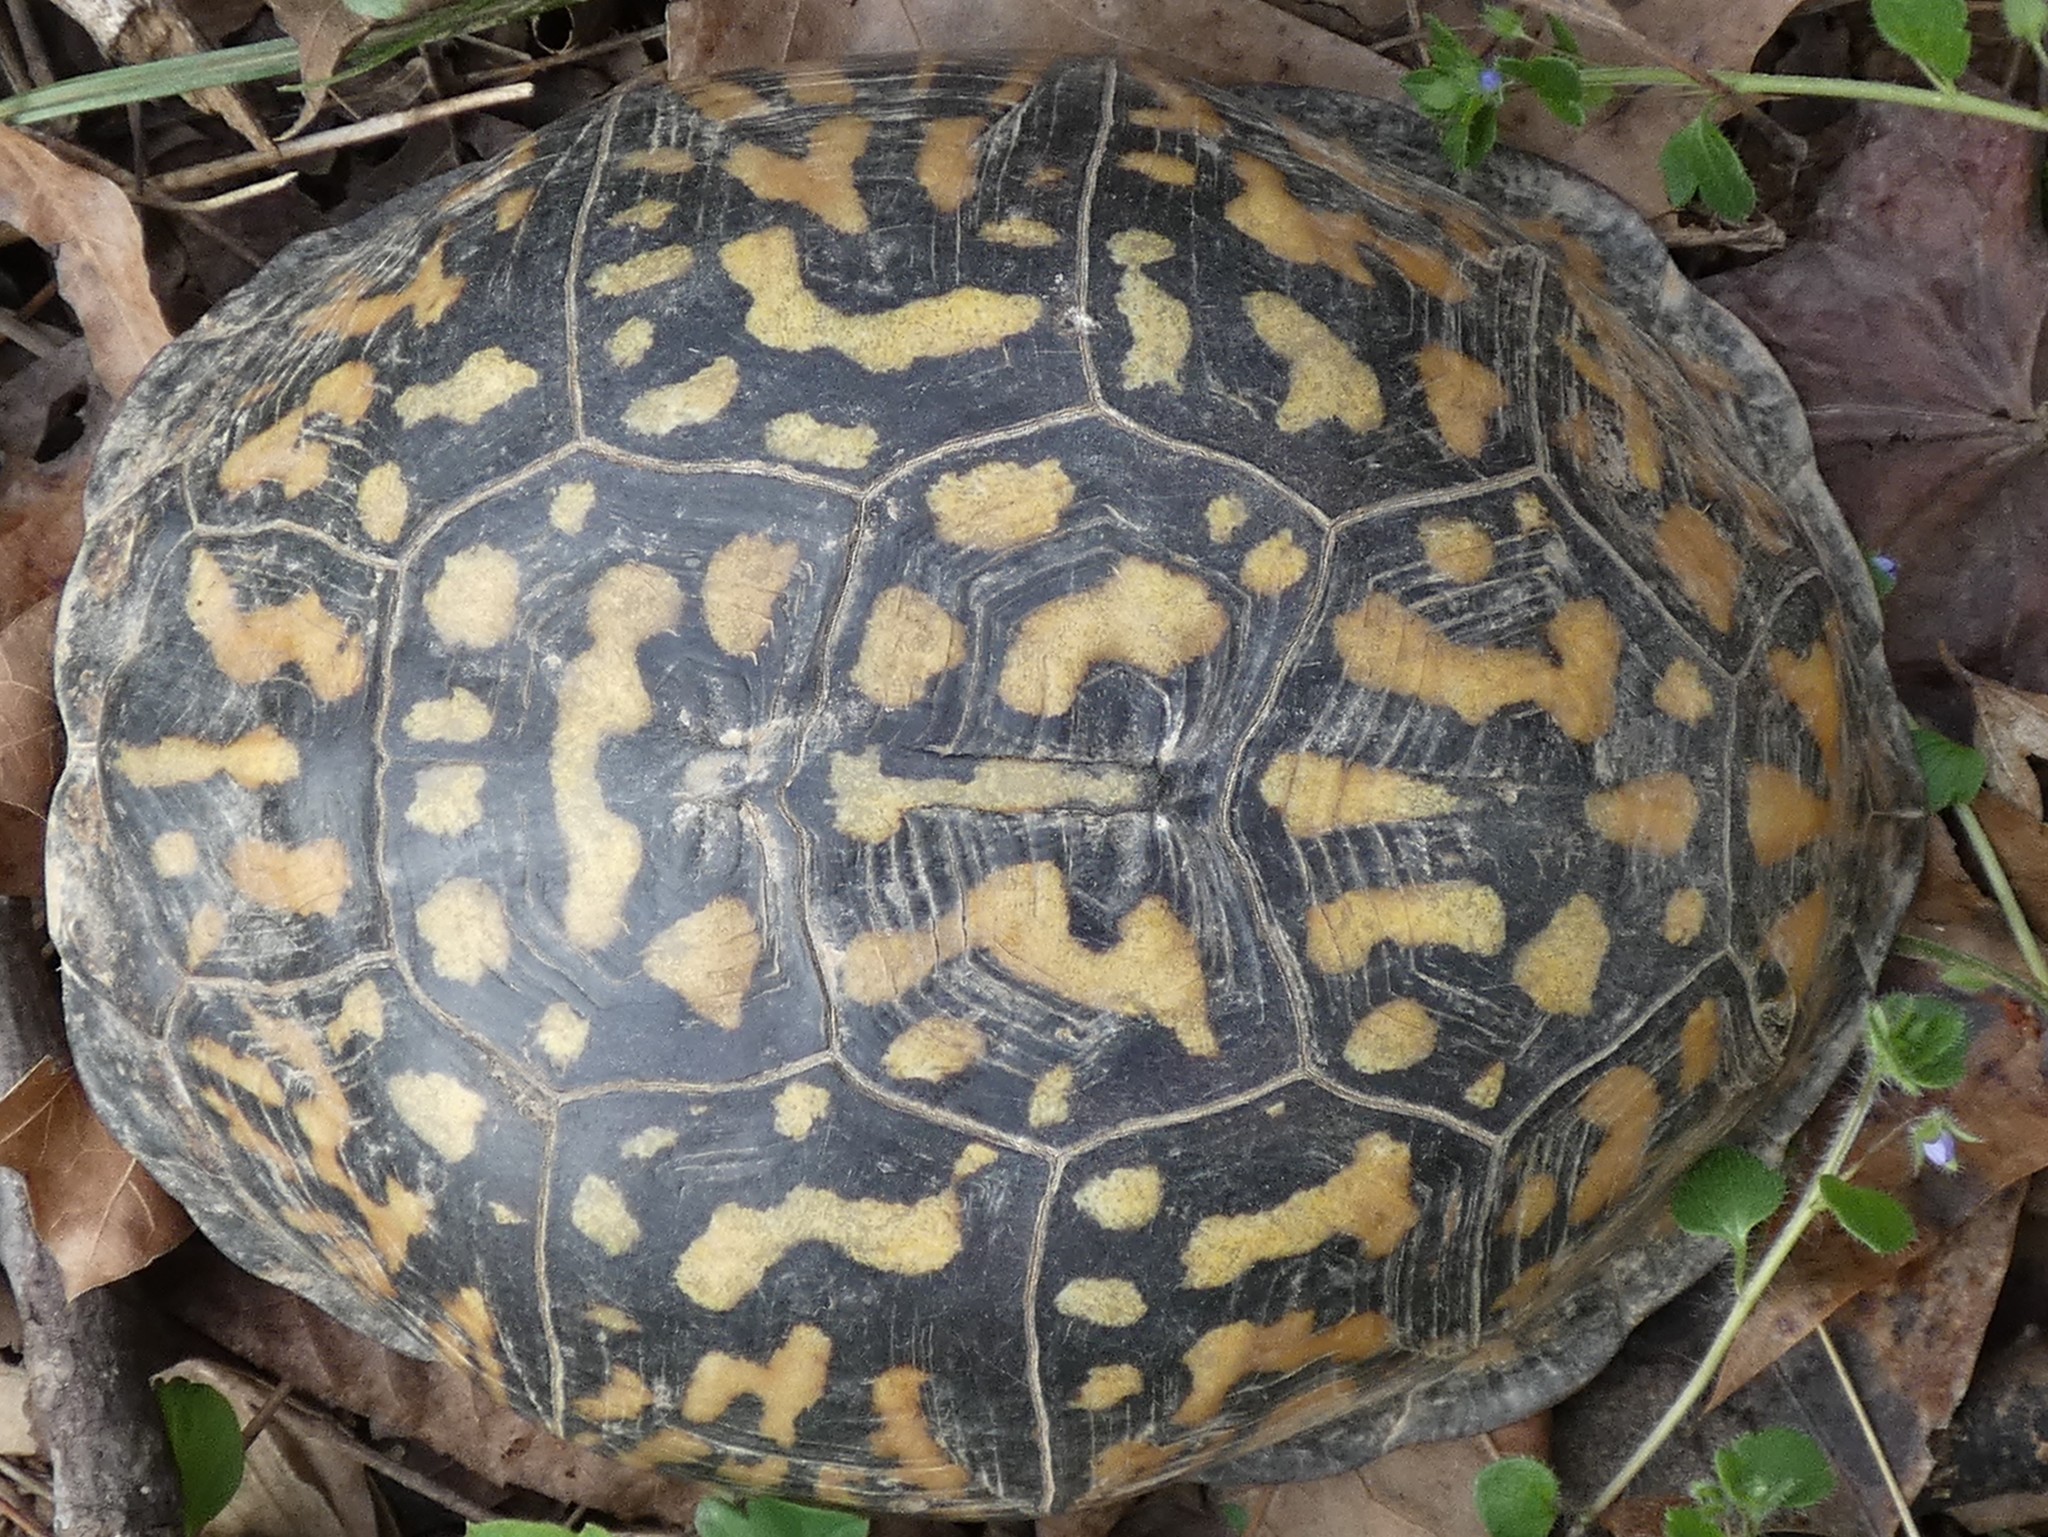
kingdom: Animalia
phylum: Chordata
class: Testudines
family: Emydidae
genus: Terrapene
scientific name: Terrapene carolina
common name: Common box turtle
